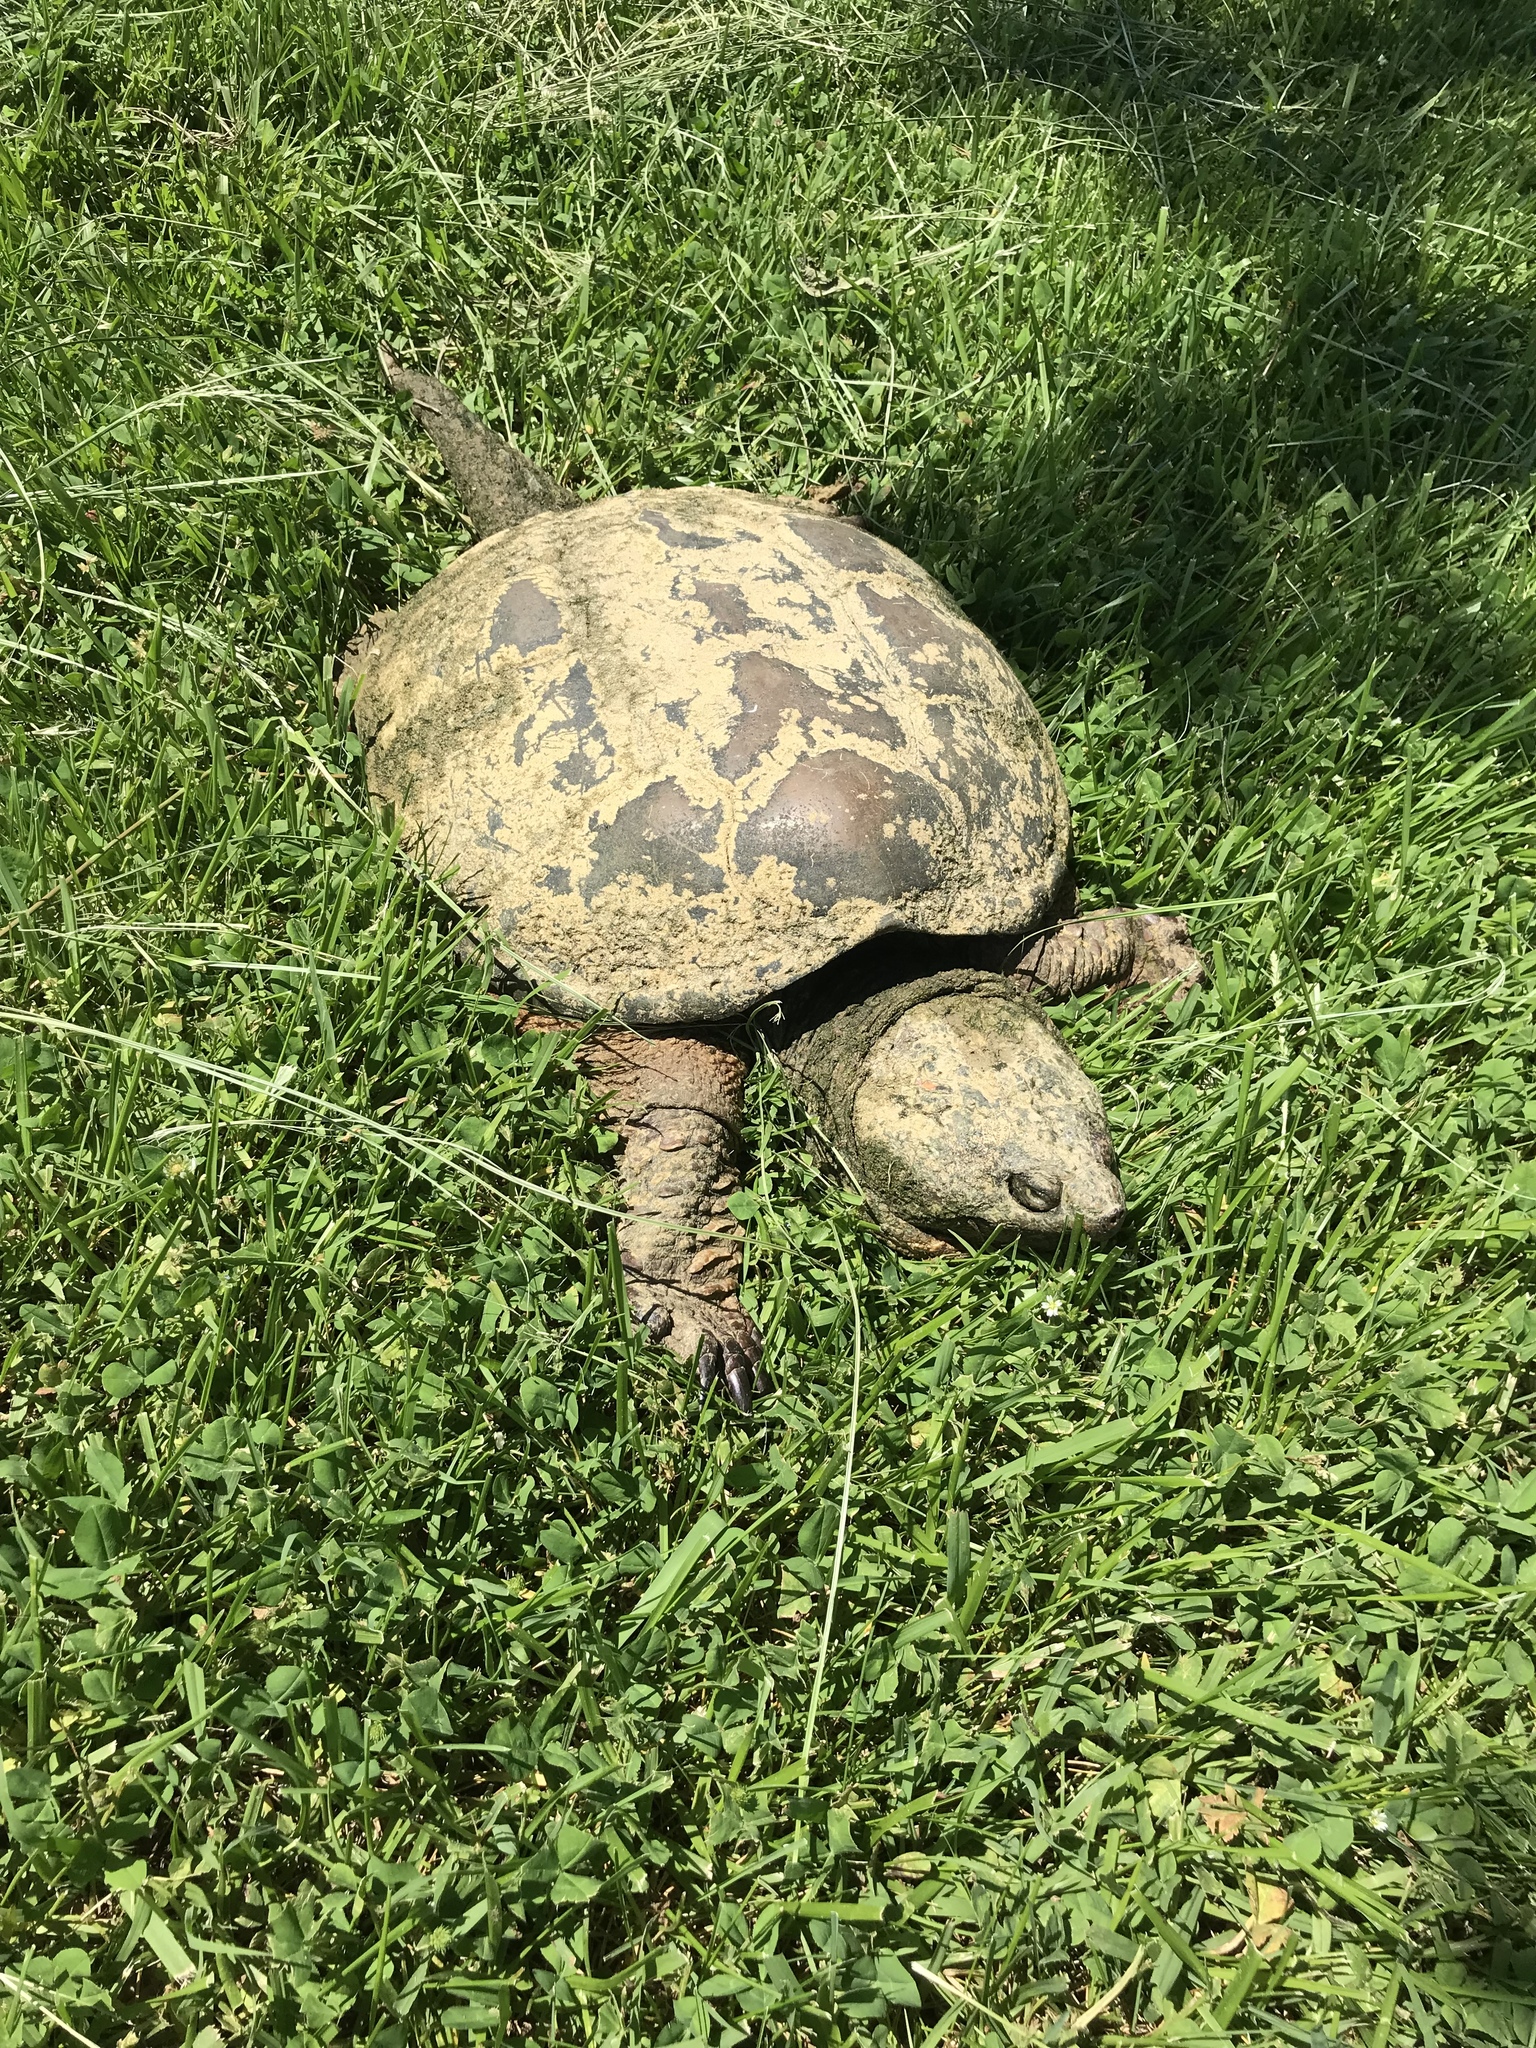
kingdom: Animalia
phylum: Chordata
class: Testudines
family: Chelydridae
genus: Chelydra
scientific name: Chelydra serpentina
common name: Common snapping turtle
